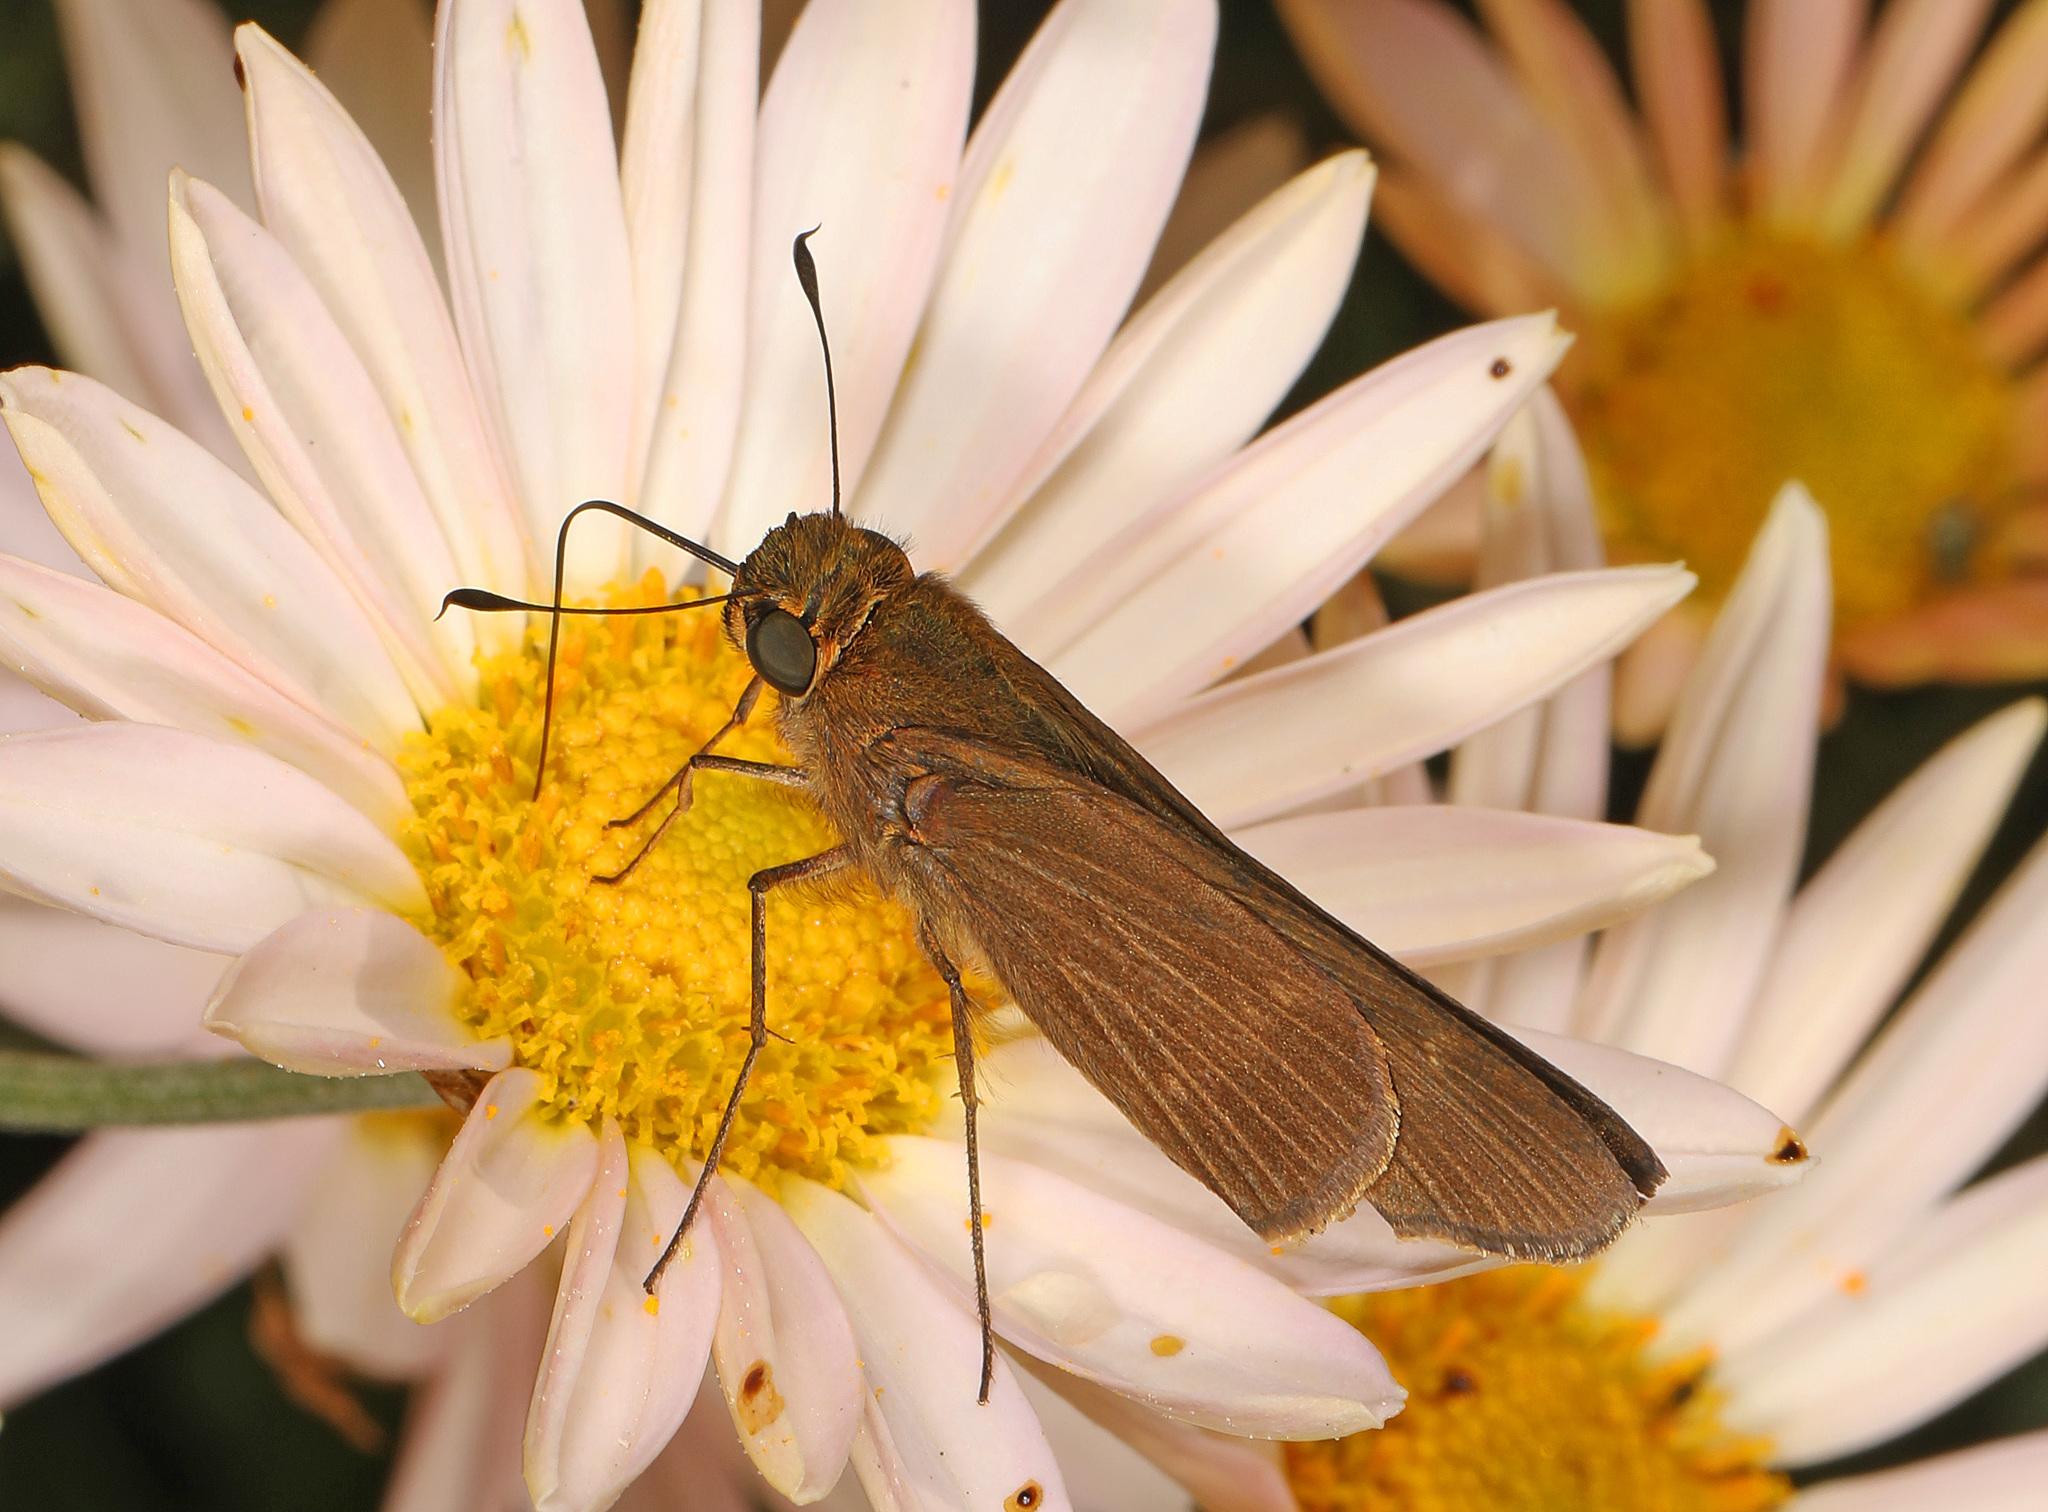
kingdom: Animalia
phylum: Arthropoda
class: Insecta
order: Lepidoptera
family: Hesperiidae
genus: Panoquina
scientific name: Panoquina ocola
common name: Ocola skipper
